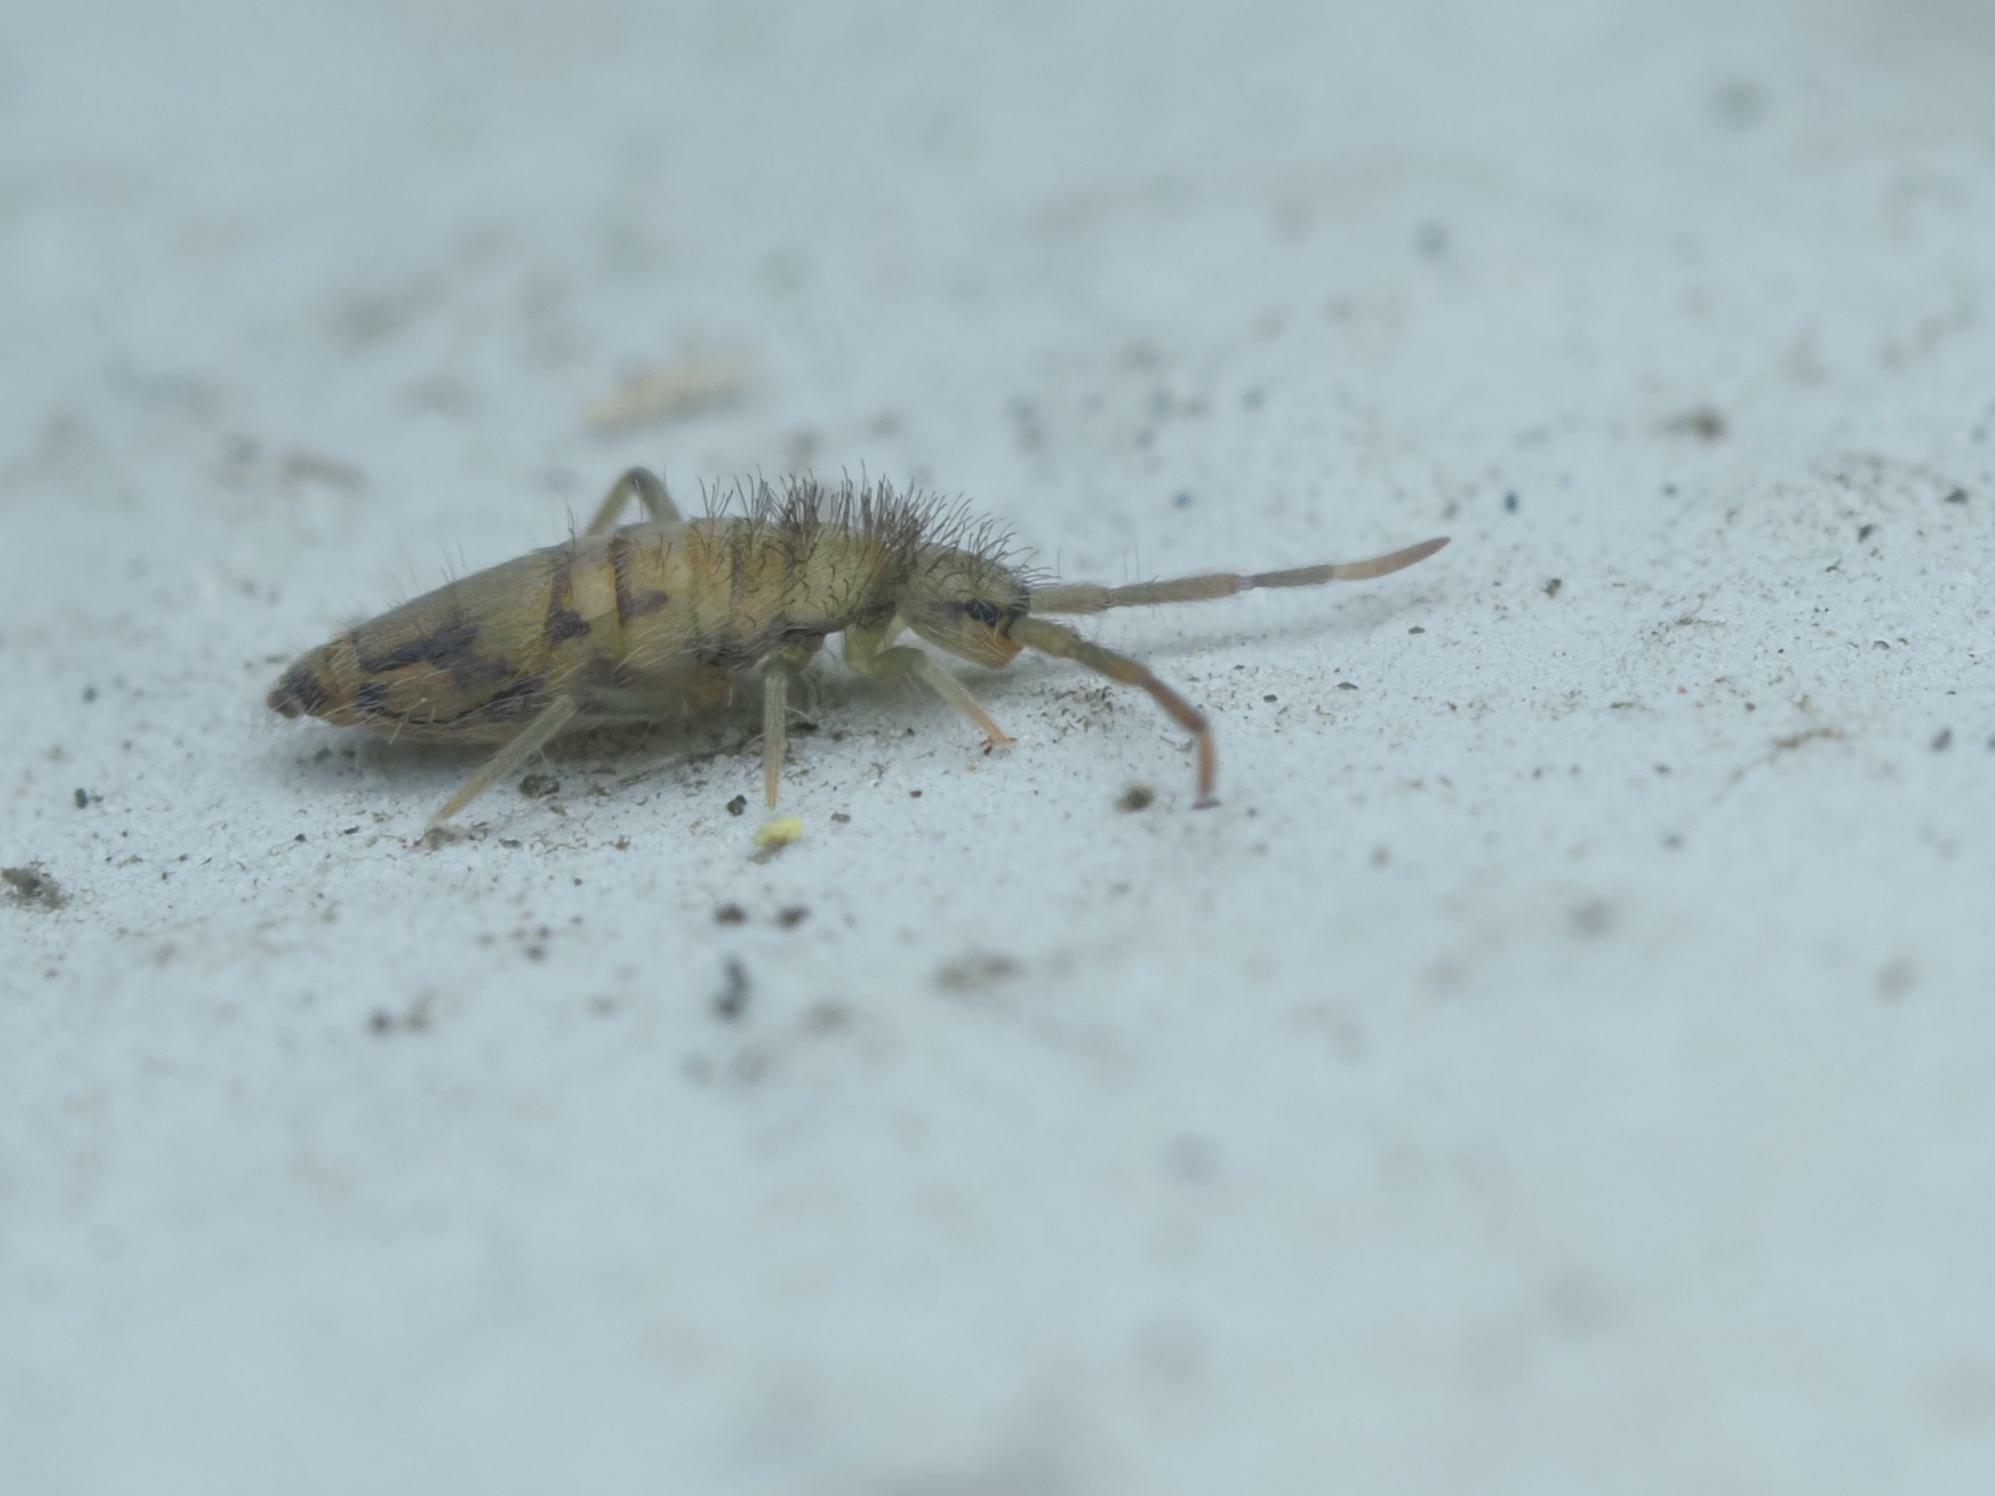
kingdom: Animalia
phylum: Arthropoda
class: Collembola
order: Entomobryomorpha
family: Entomobryidae
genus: Entomobrya
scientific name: Entomobrya nivalis
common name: Cosmopolitan springtail
